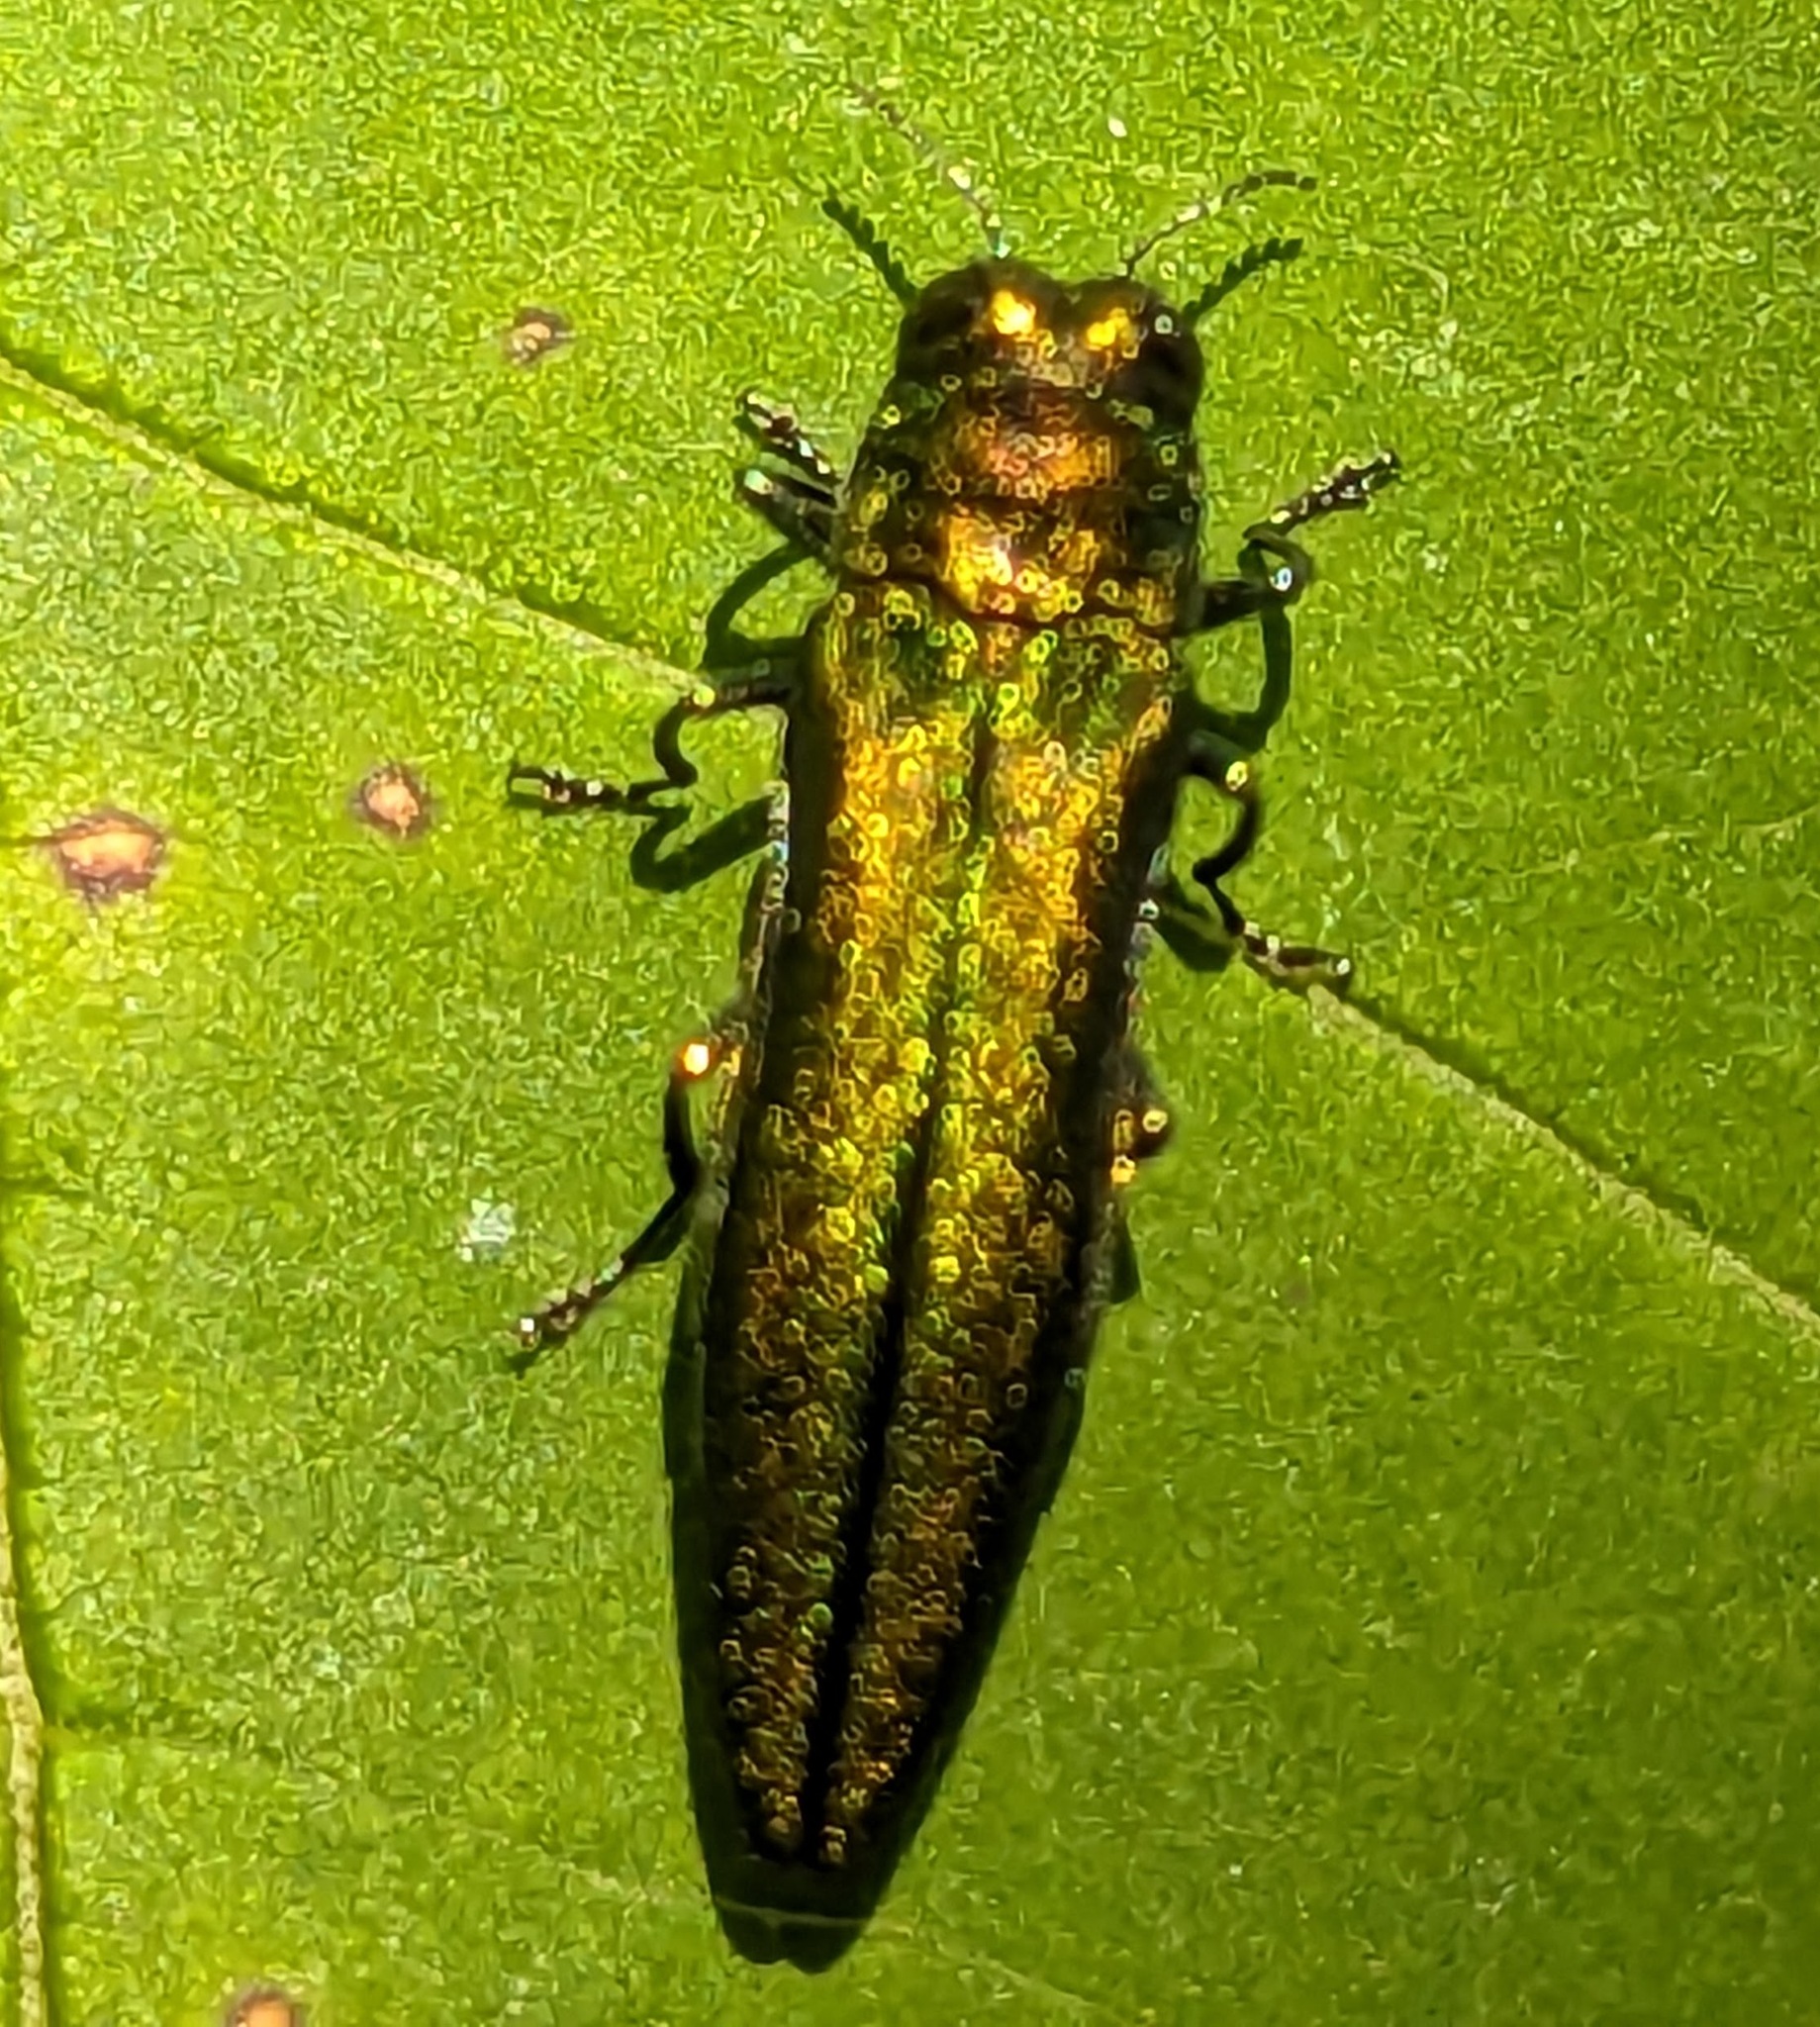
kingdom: Animalia
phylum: Arthropoda
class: Insecta
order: Coleoptera
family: Buprestidae
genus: Agrilus
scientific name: Agrilus planipennis
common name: Emerald ash borer
